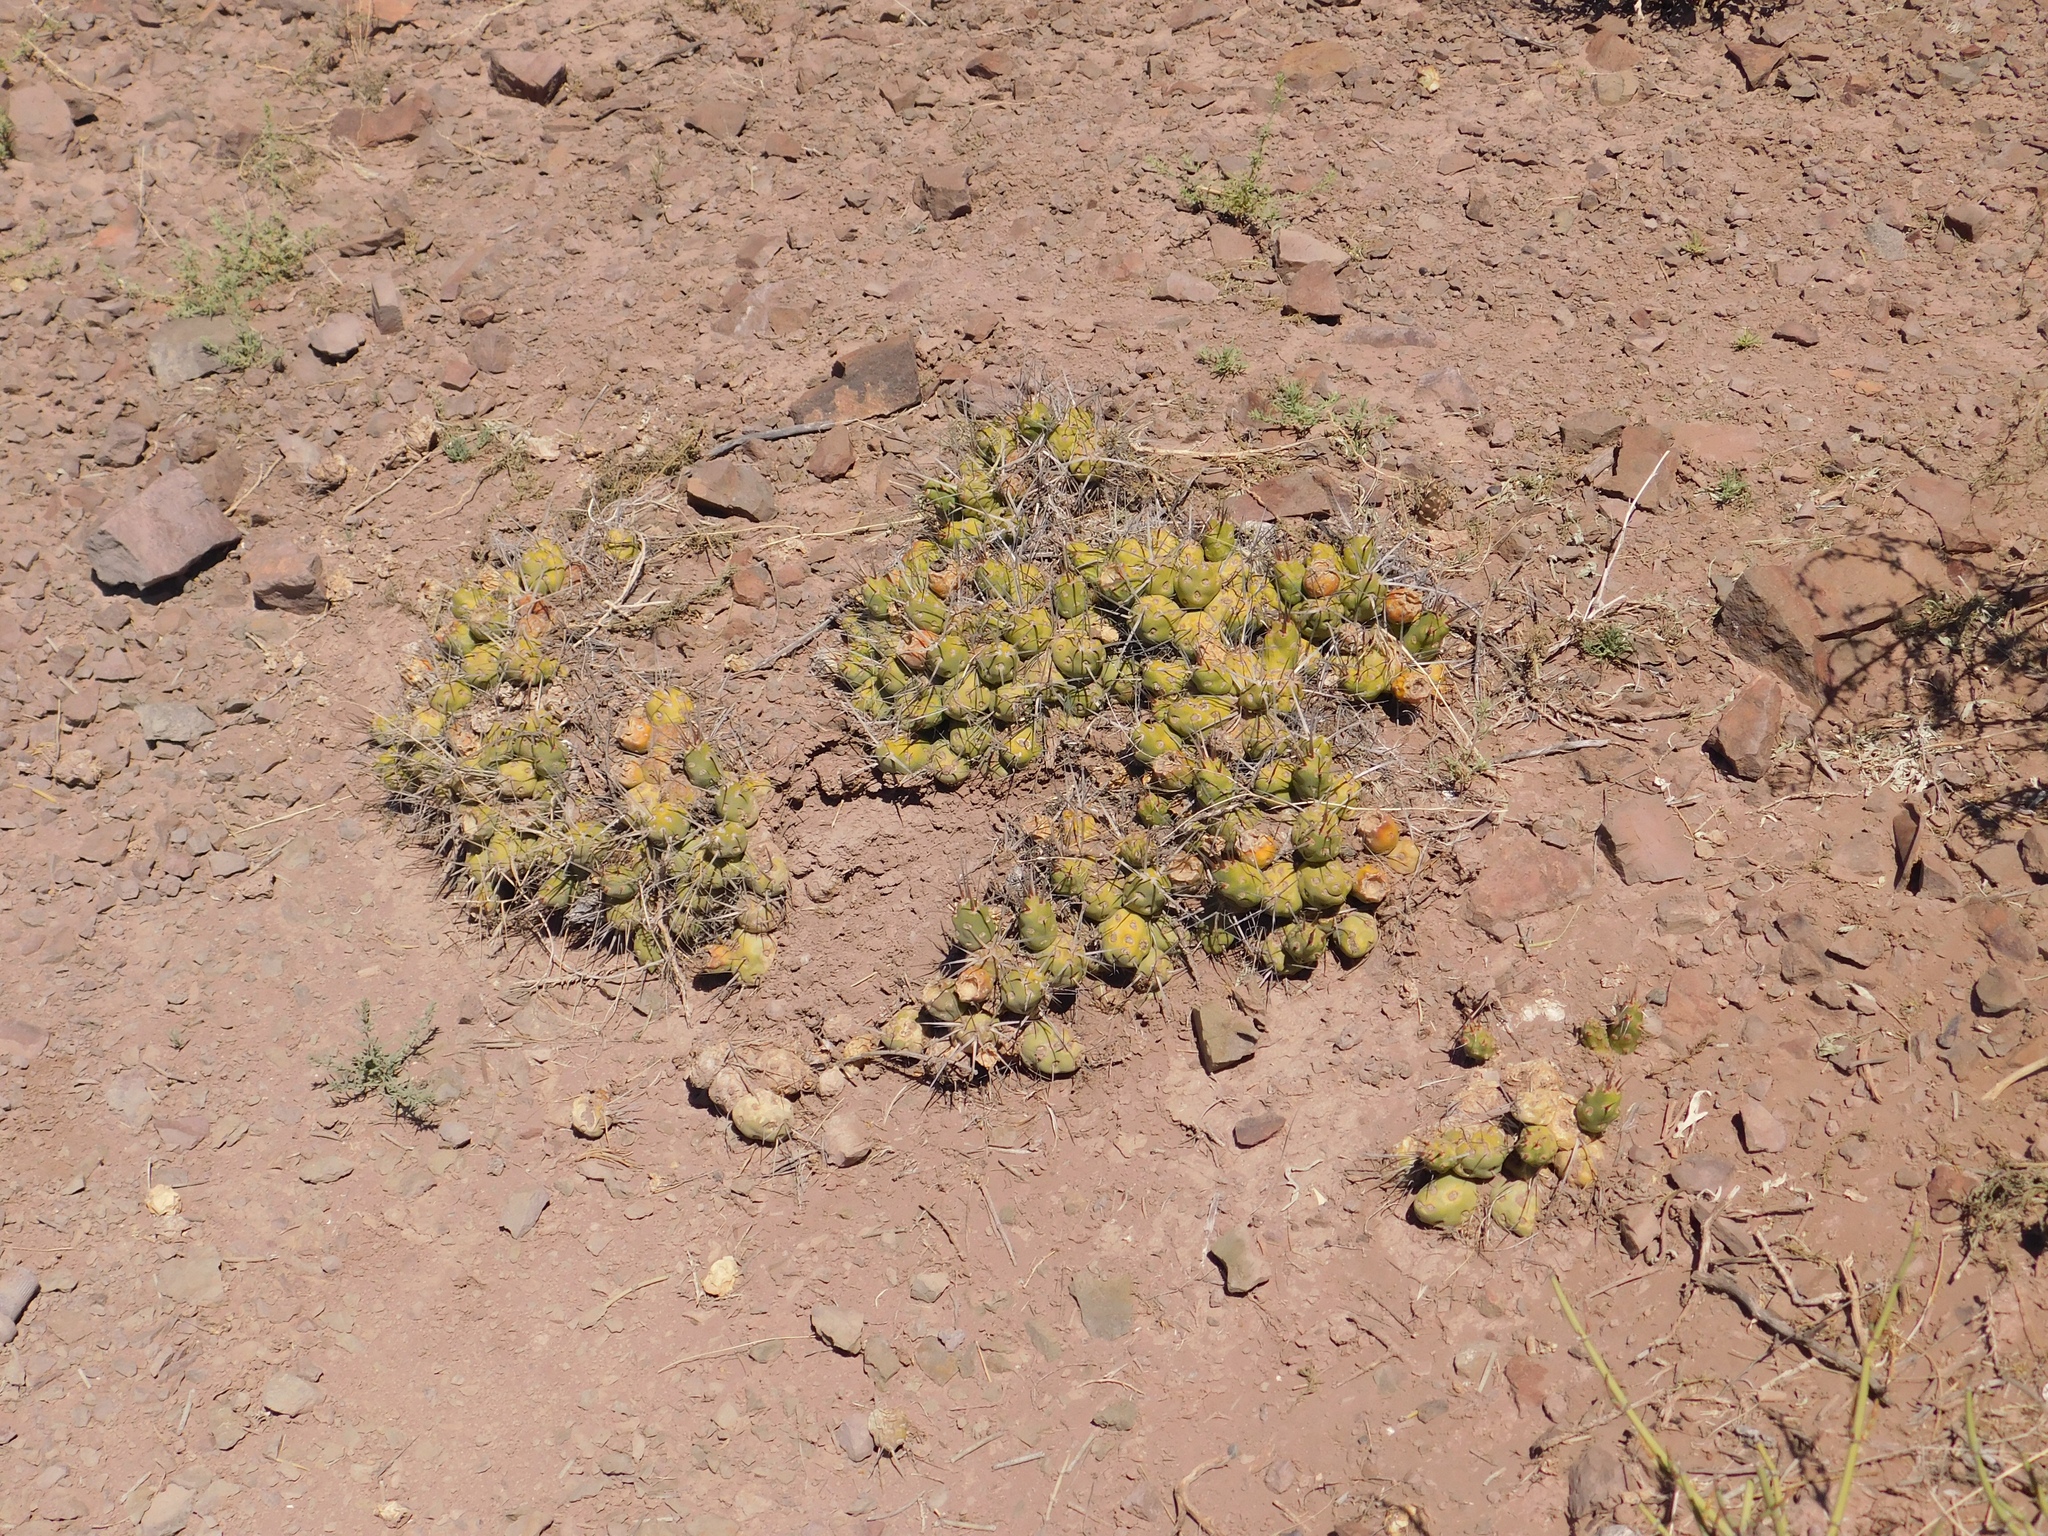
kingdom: Plantae
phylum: Tracheophyta
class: Magnoliopsida
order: Caryophyllales
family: Cactaceae
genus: Maihueniopsis
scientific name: Maihueniopsis hickenii
